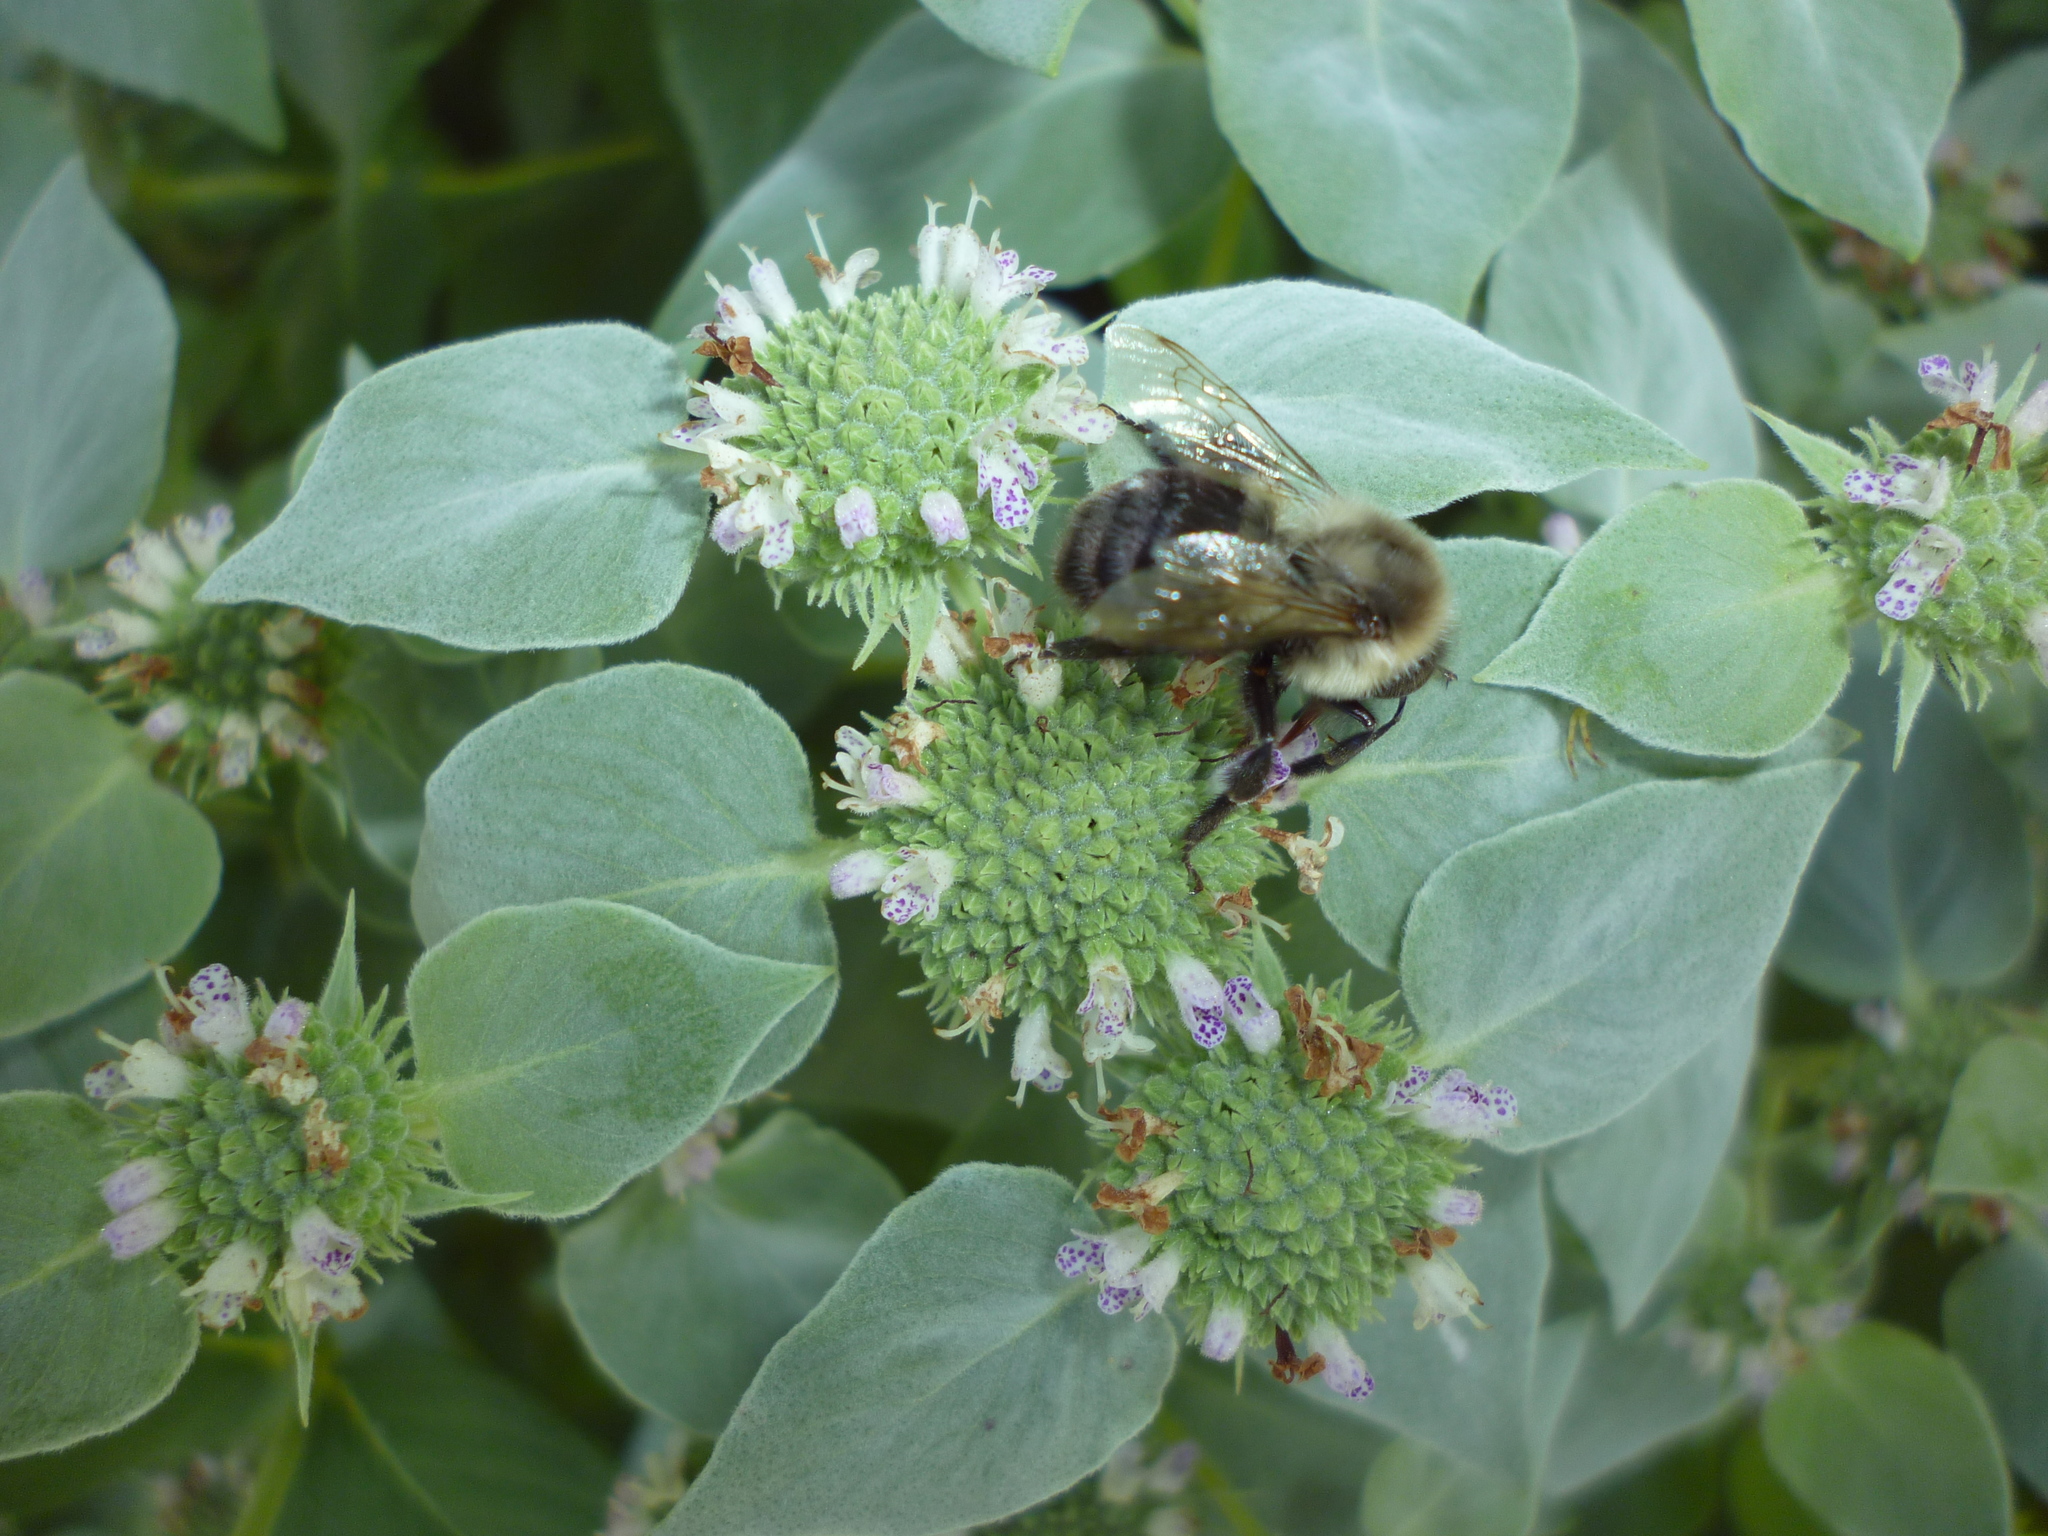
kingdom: Plantae
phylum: Tracheophyta
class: Magnoliopsida
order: Lamiales
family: Lamiaceae
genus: Pycnanthemum
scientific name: Pycnanthemum muticum
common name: Blunt mountain-mint
